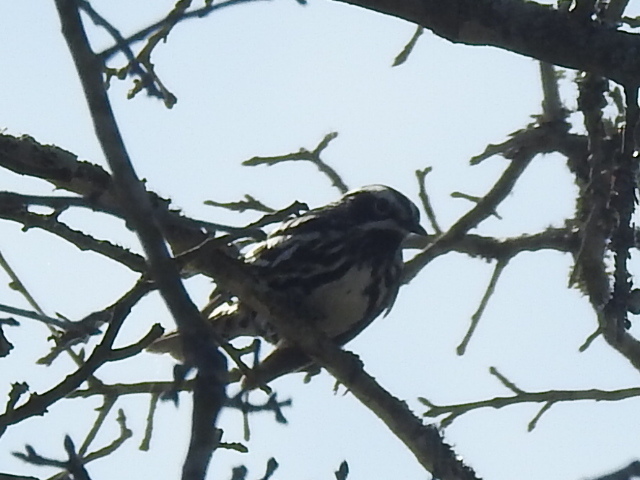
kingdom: Animalia
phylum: Chordata
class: Aves
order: Passeriformes
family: Parulidae
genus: Mniotilta
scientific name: Mniotilta varia
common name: Black-and-white warbler
